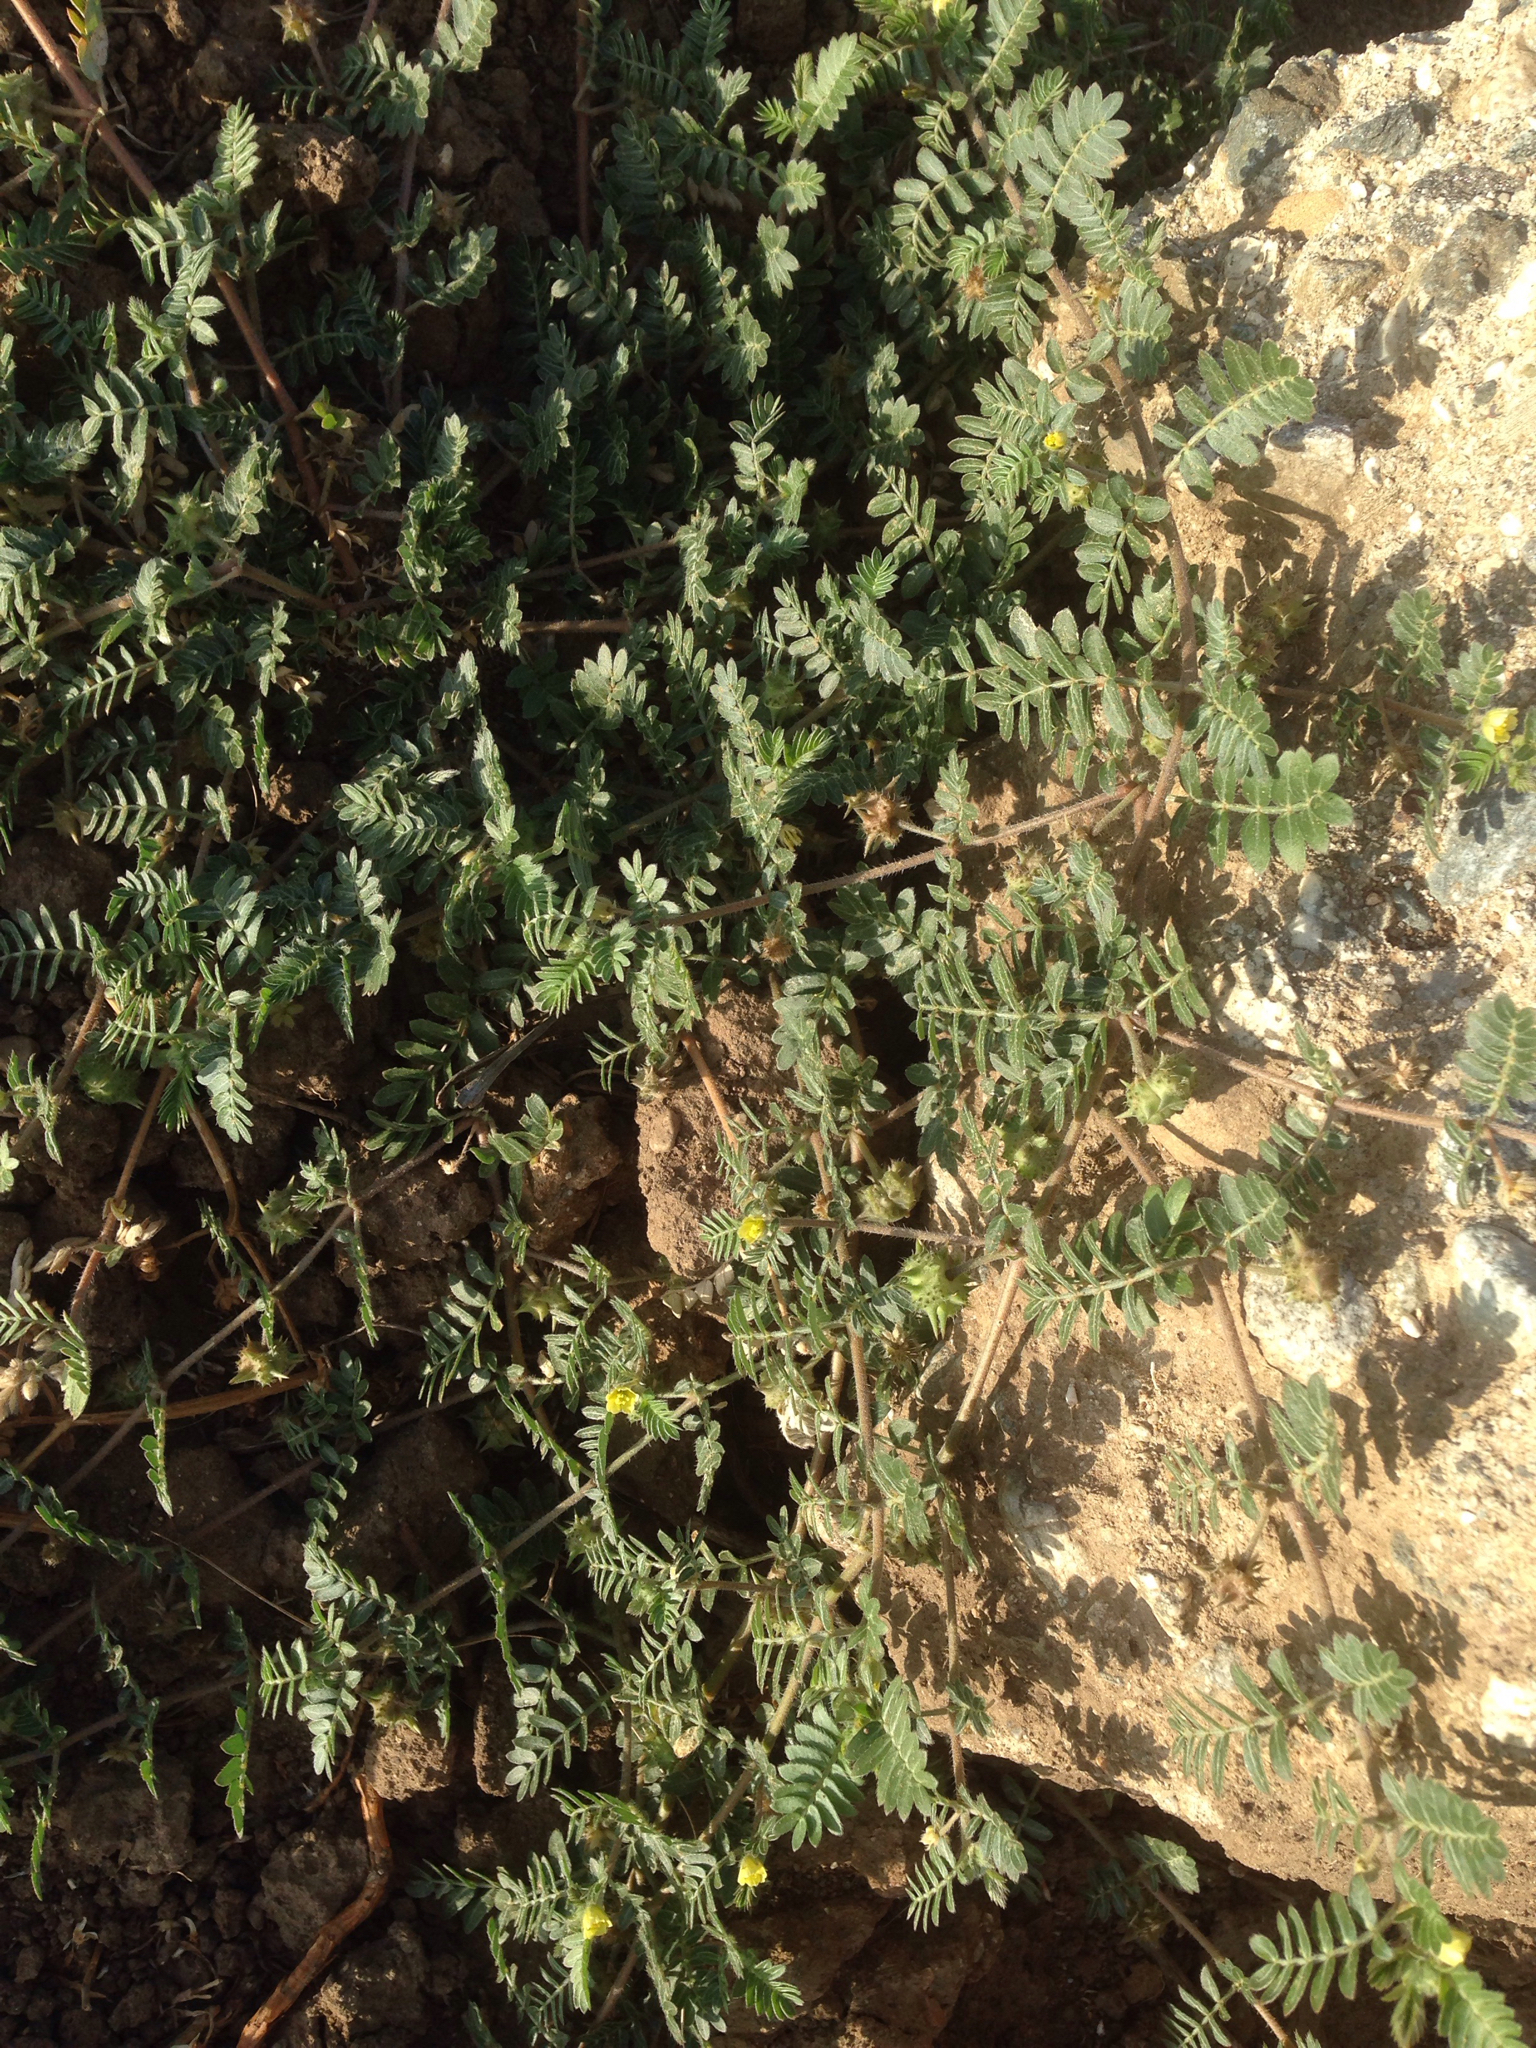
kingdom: Plantae
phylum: Tracheophyta
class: Magnoliopsida
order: Zygophyllales
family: Zygophyllaceae
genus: Tribulus
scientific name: Tribulus terrestris
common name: Puncturevine
